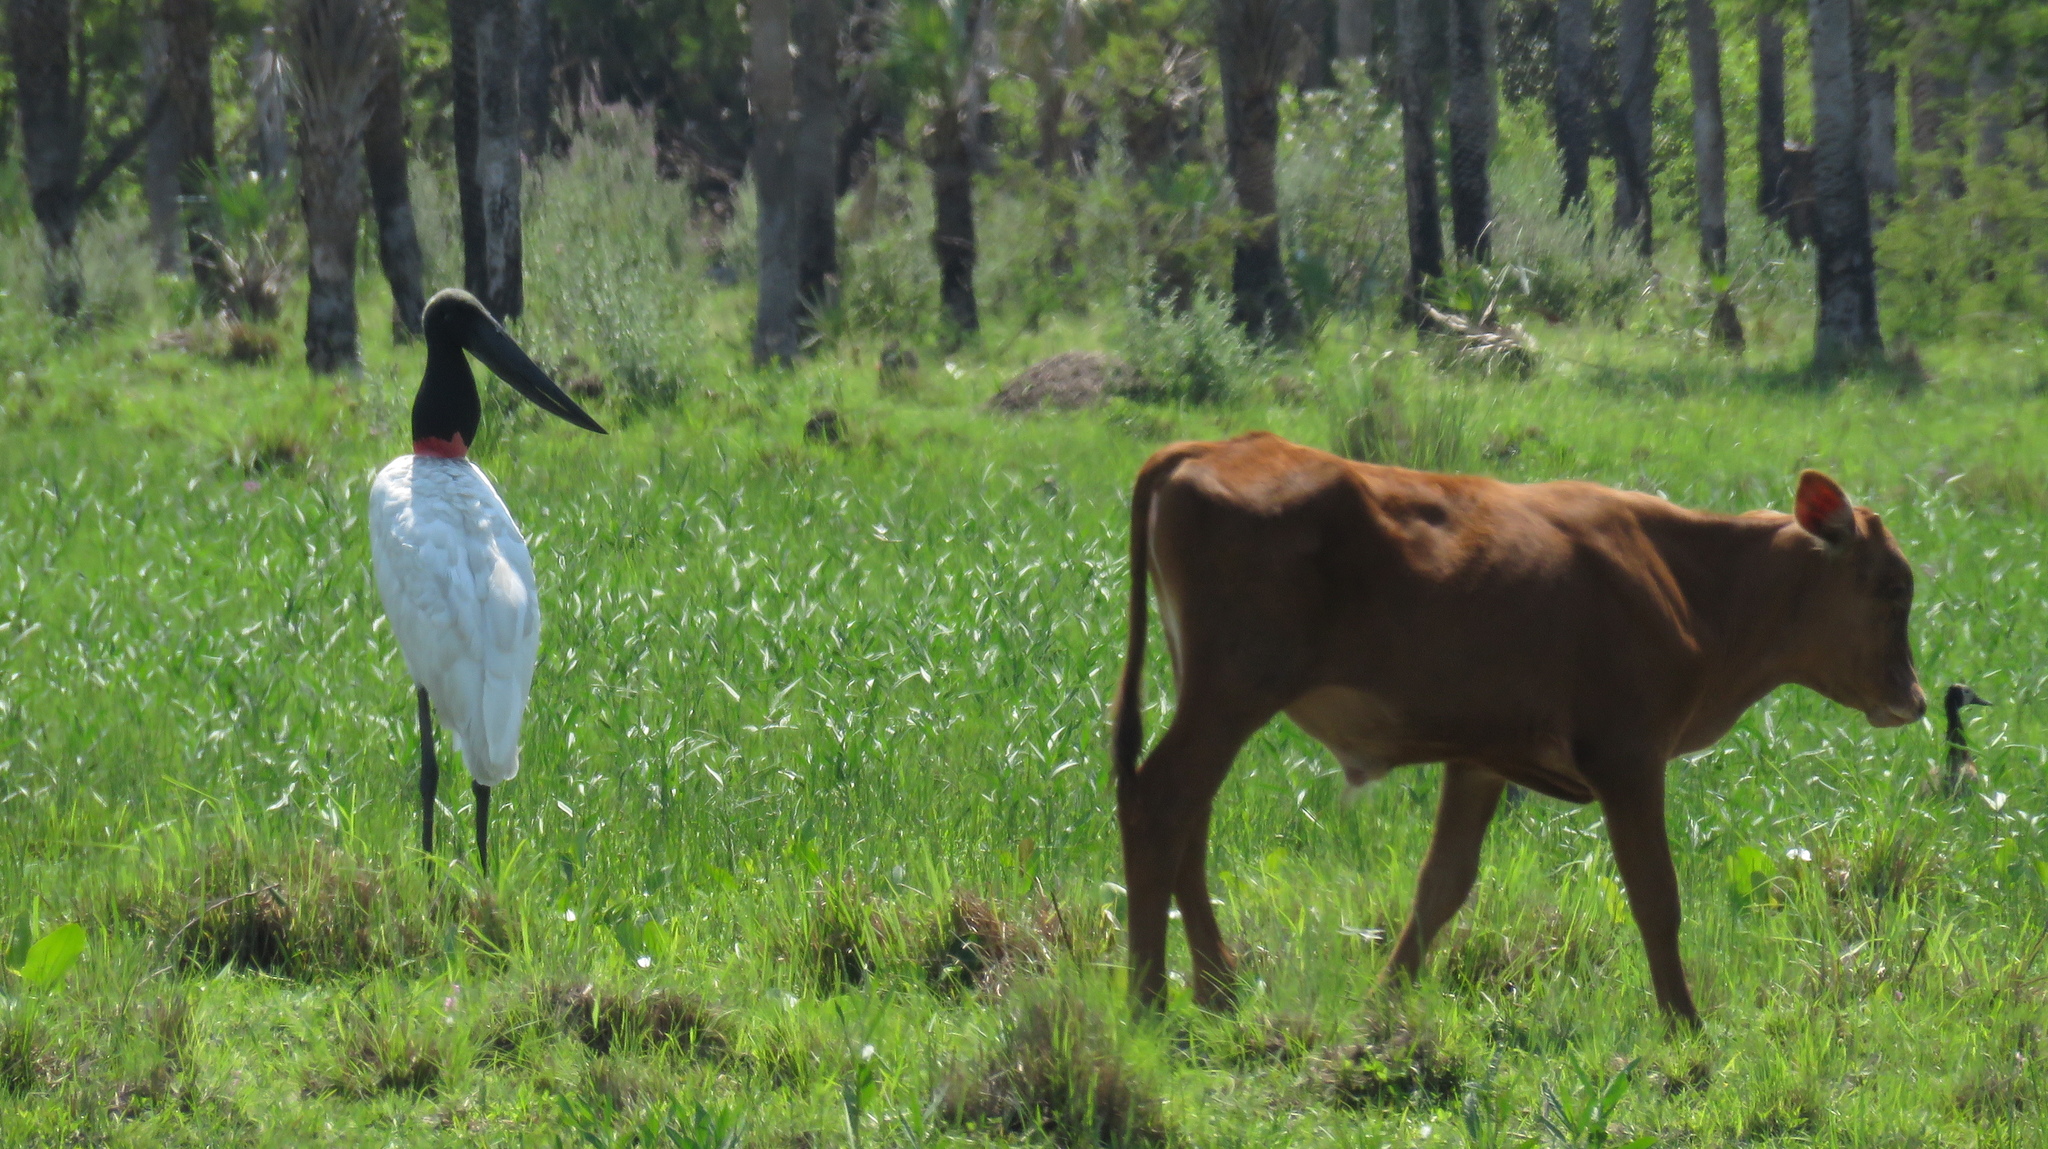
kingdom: Animalia
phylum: Chordata
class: Aves
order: Ciconiiformes
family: Ciconiidae
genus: Jabiru
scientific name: Jabiru mycteria
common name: Jabiru
